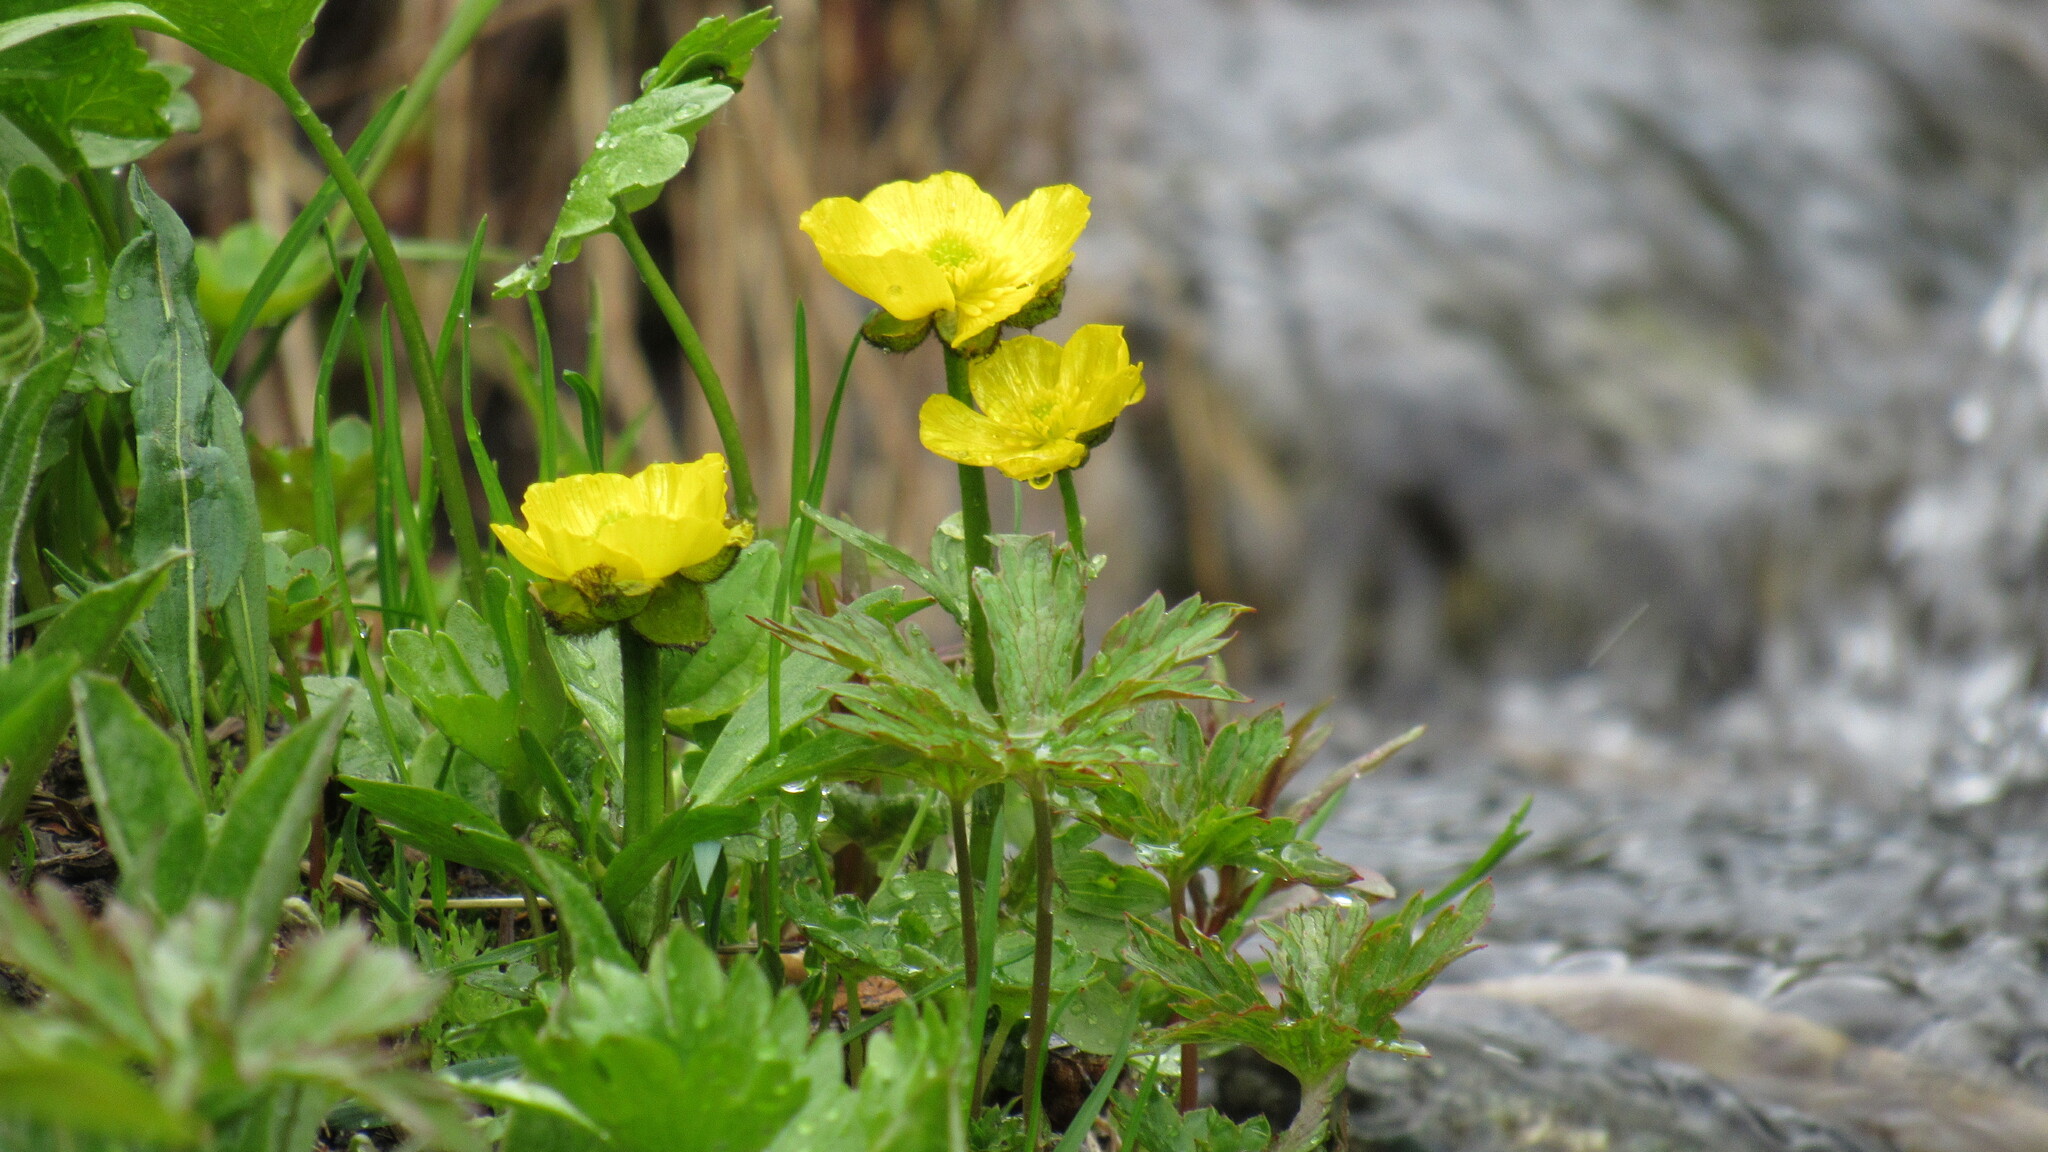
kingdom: Plantae
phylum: Tracheophyta
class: Magnoliopsida
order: Ranunculales
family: Ranunculaceae
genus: Ranunculus
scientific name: Ranunculus sulphureus
